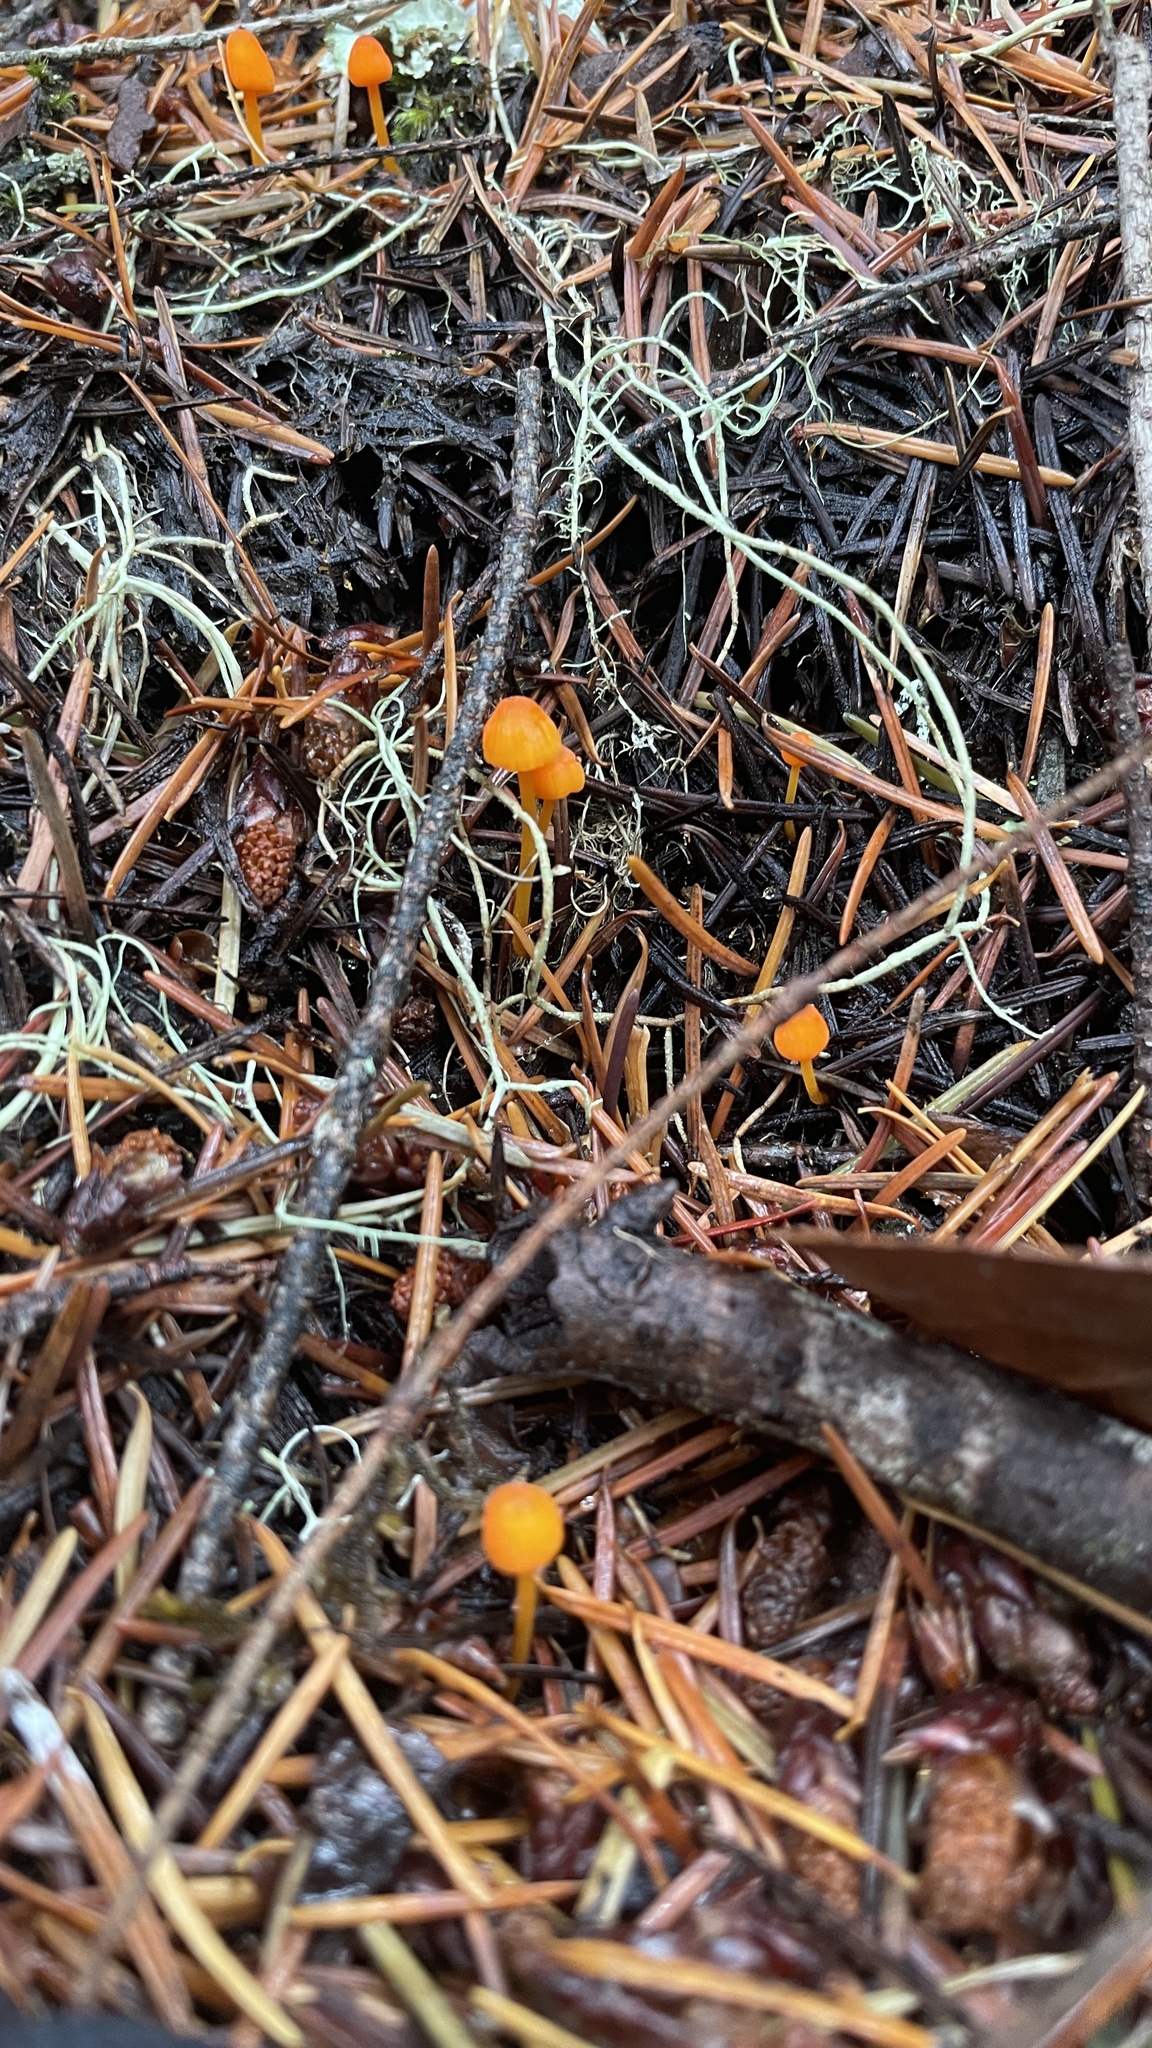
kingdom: Fungi
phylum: Basidiomycota
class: Agaricomycetes
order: Agaricales
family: Mycenaceae
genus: Mycena
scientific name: Mycena strobilinoidea
